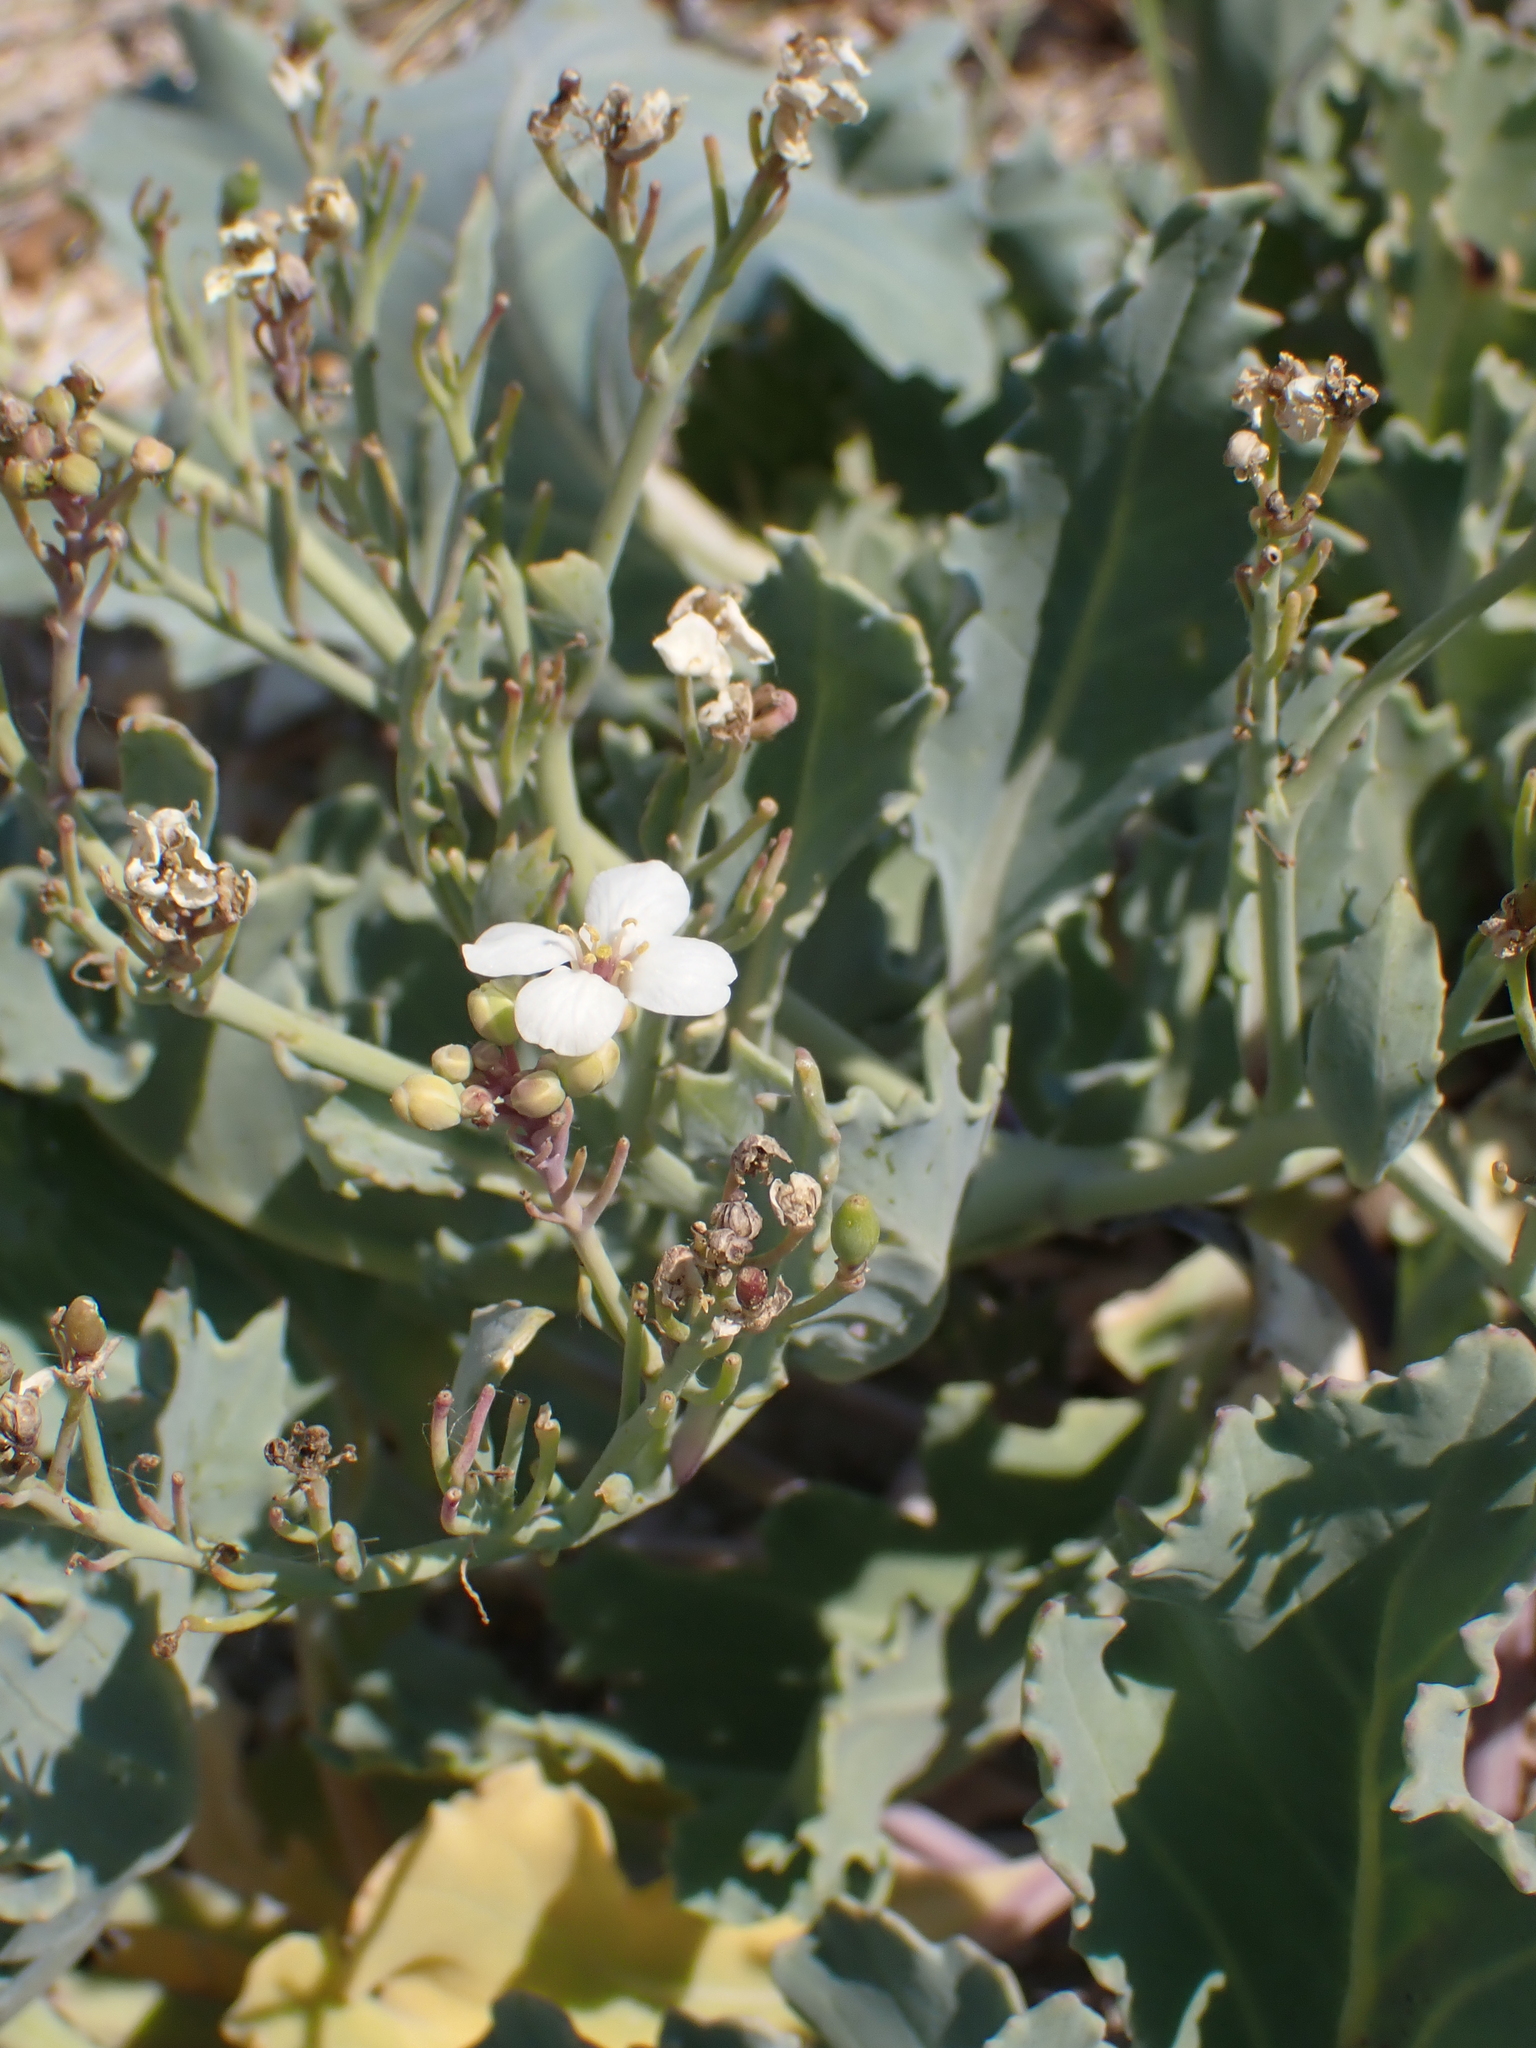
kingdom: Plantae
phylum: Tracheophyta
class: Magnoliopsida
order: Brassicales
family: Brassicaceae
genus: Crambe
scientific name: Crambe maritima
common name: Sea-kale
